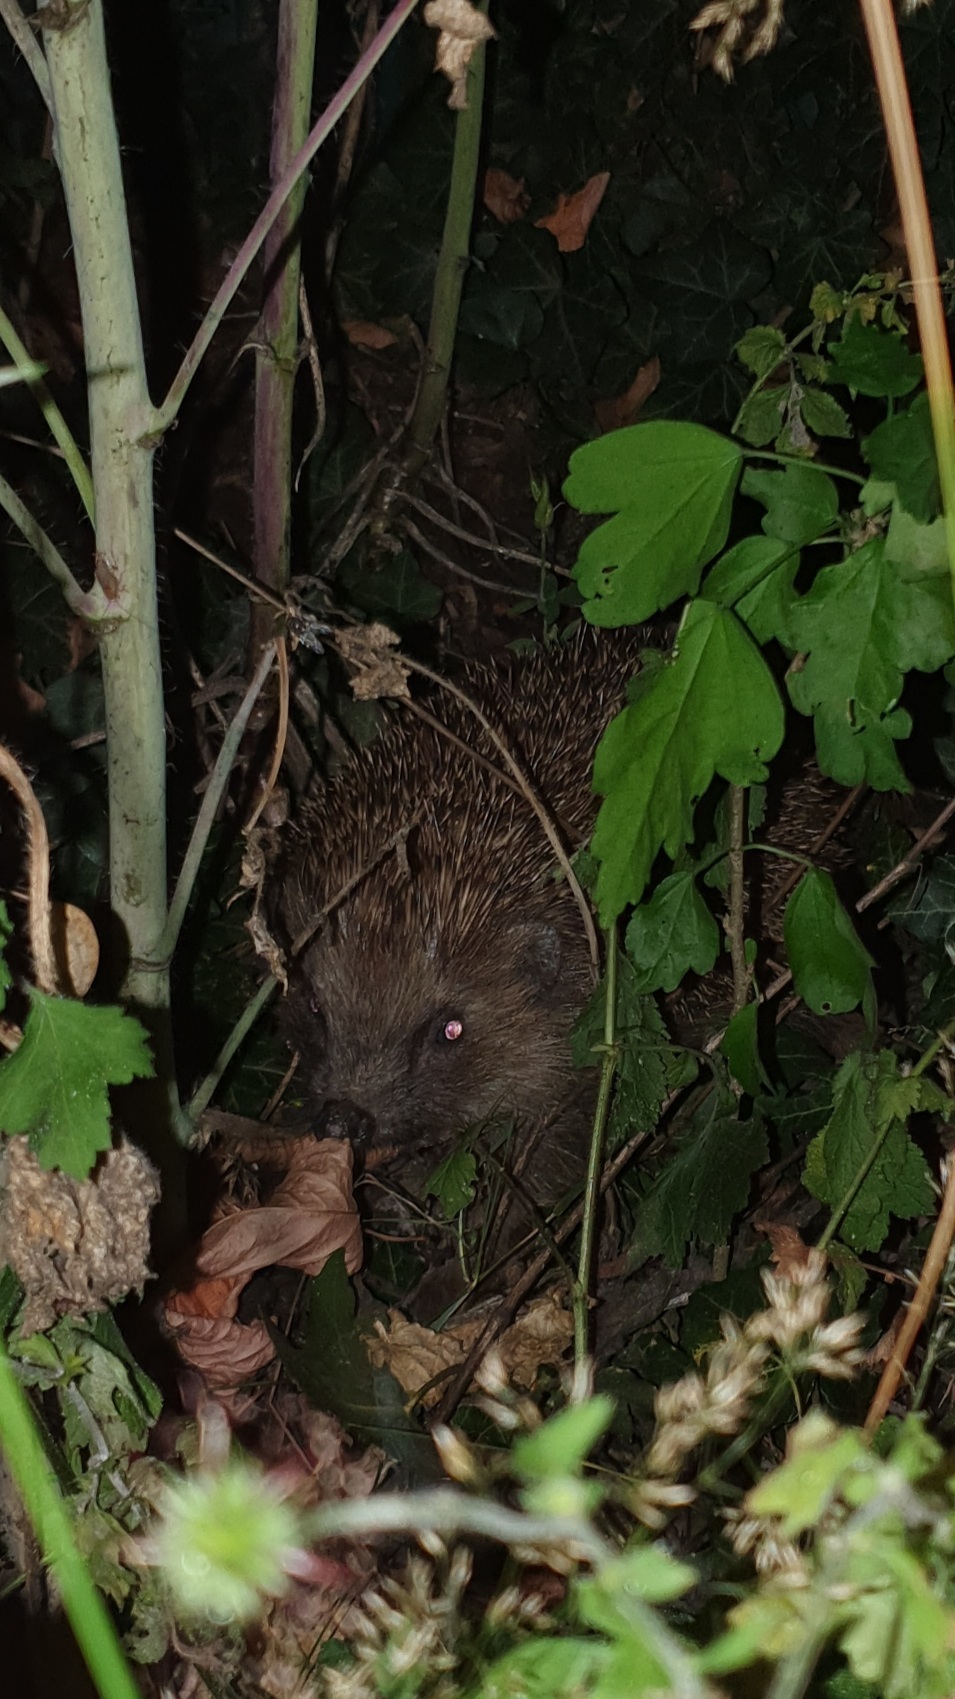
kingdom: Animalia
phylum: Chordata
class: Mammalia
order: Erinaceomorpha
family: Erinaceidae
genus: Erinaceus
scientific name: Erinaceus europaeus
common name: West european hedgehog
